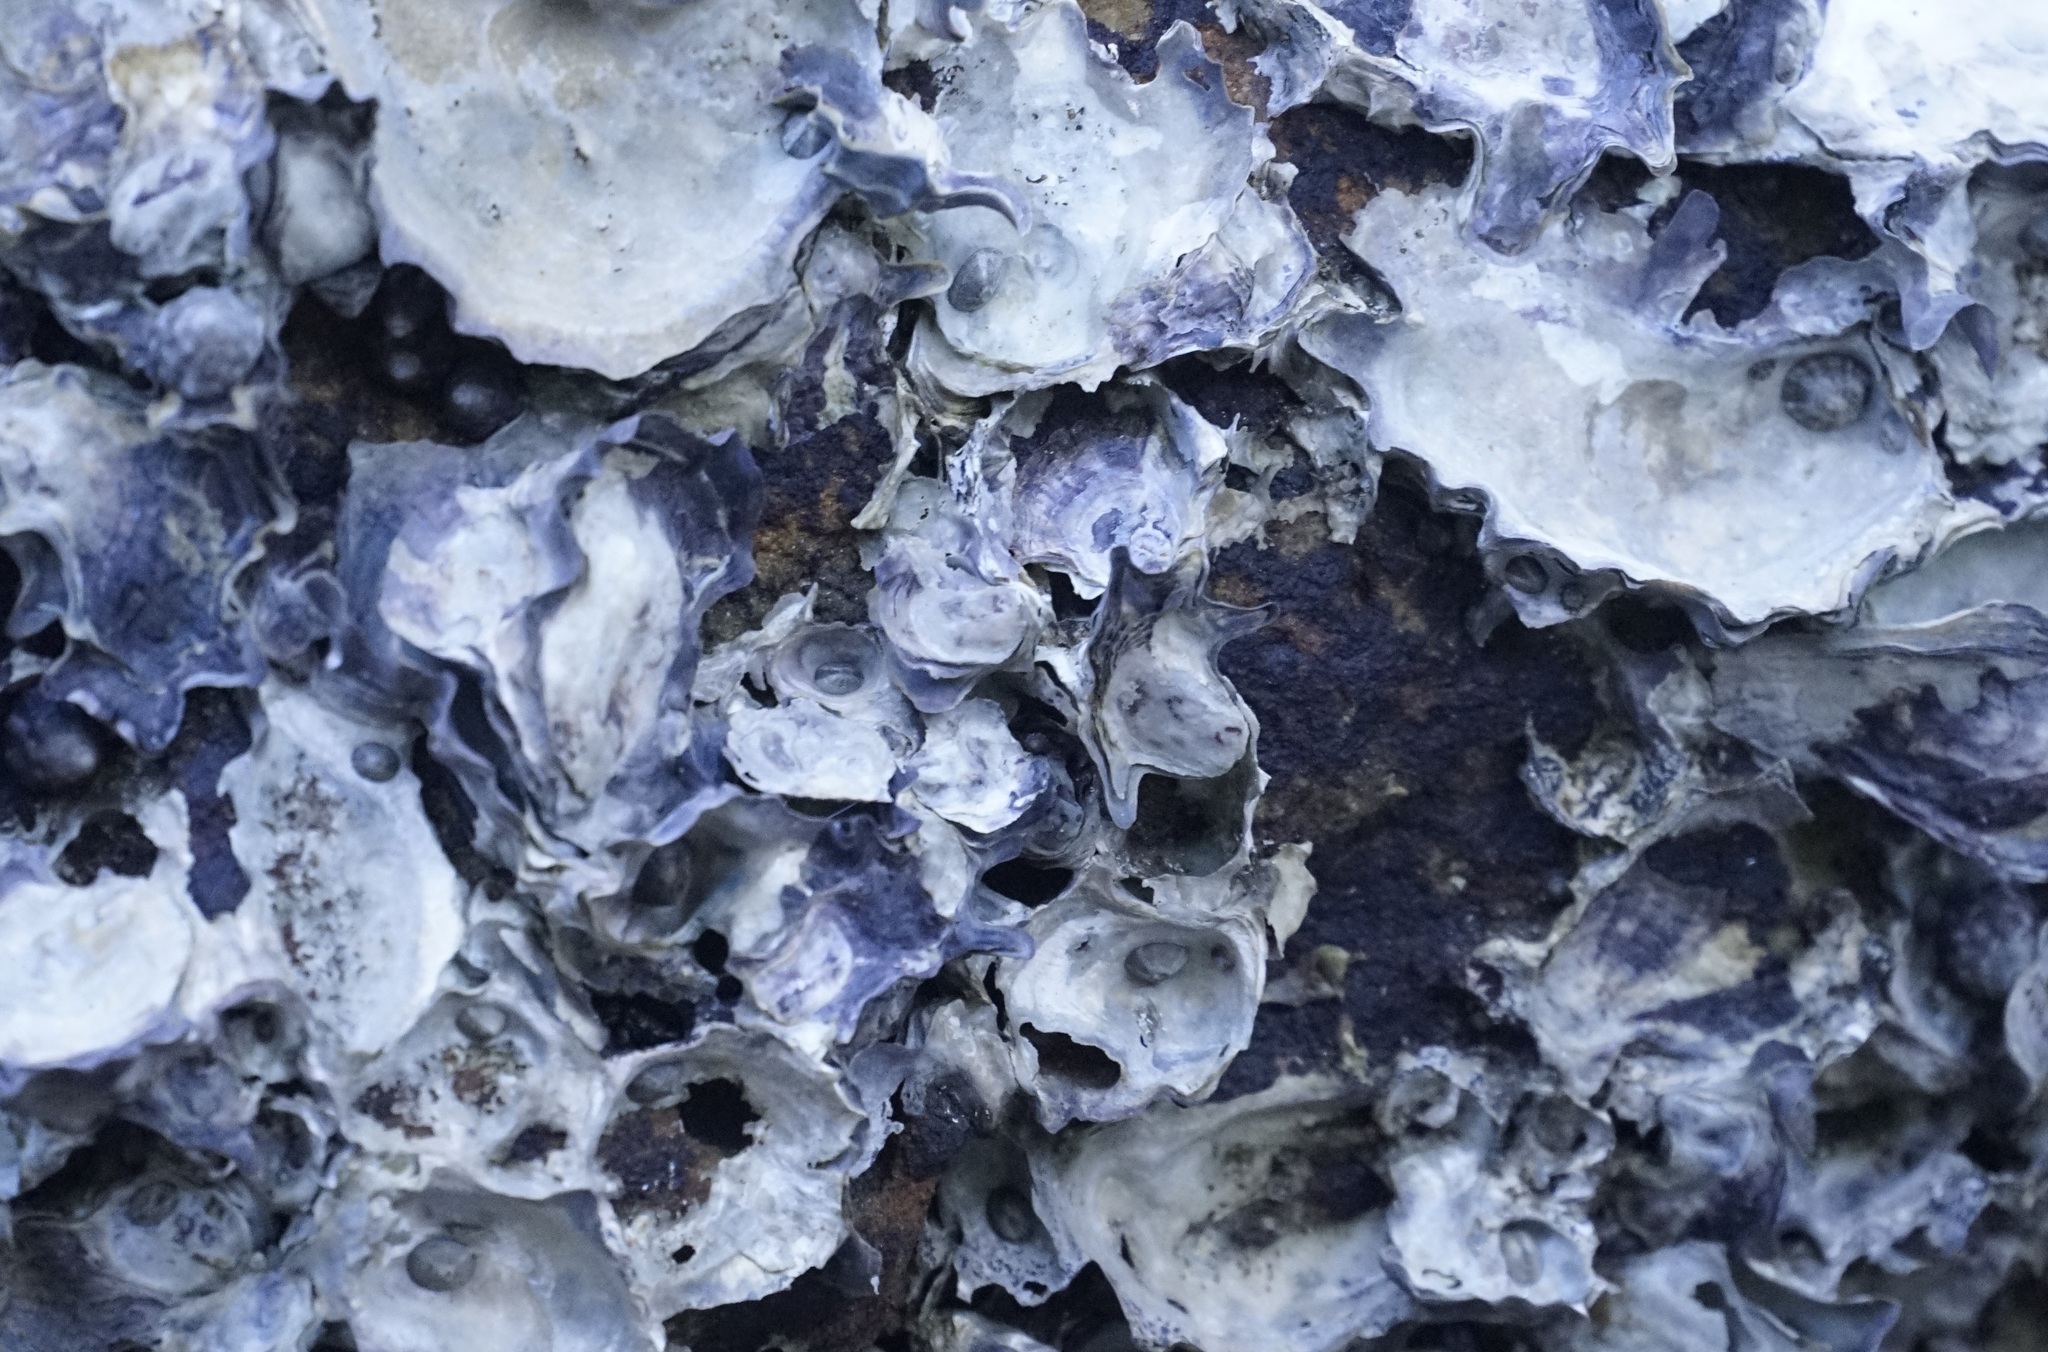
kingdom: Animalia
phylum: Mollusca
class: Bivalvia
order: Ostreida
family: Ostreidae
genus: Saccostrea
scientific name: Saccostrea glomerata
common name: Sydney cupped oyster
